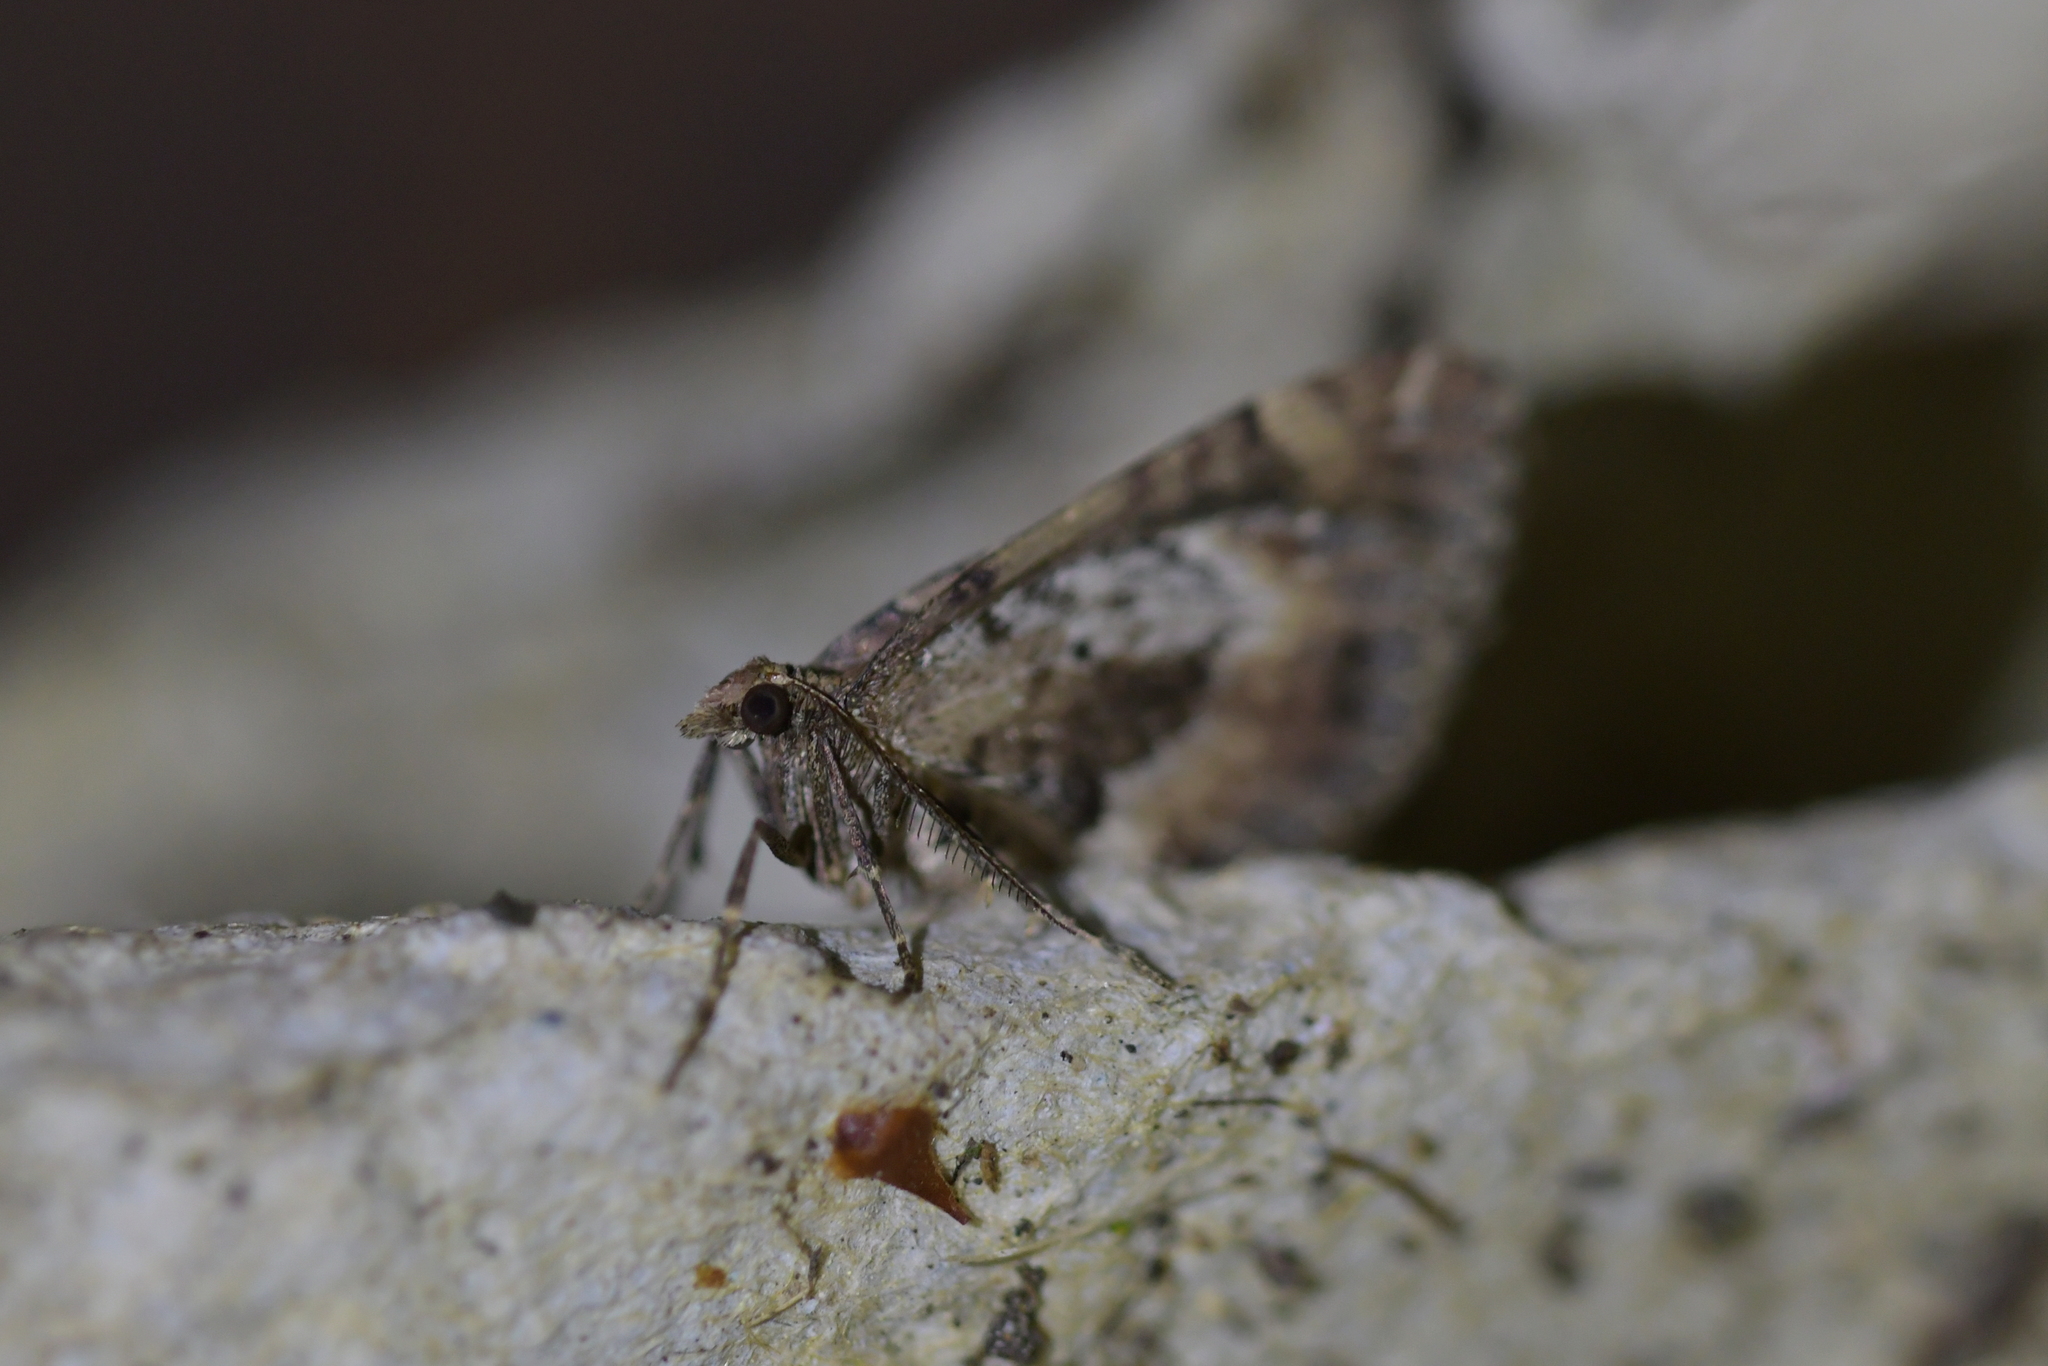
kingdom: Animalia
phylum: Arthropoda
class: Insecta
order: Lepidoptera
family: Geometridae
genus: Asaphodes
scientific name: Asaphodes aegrota
